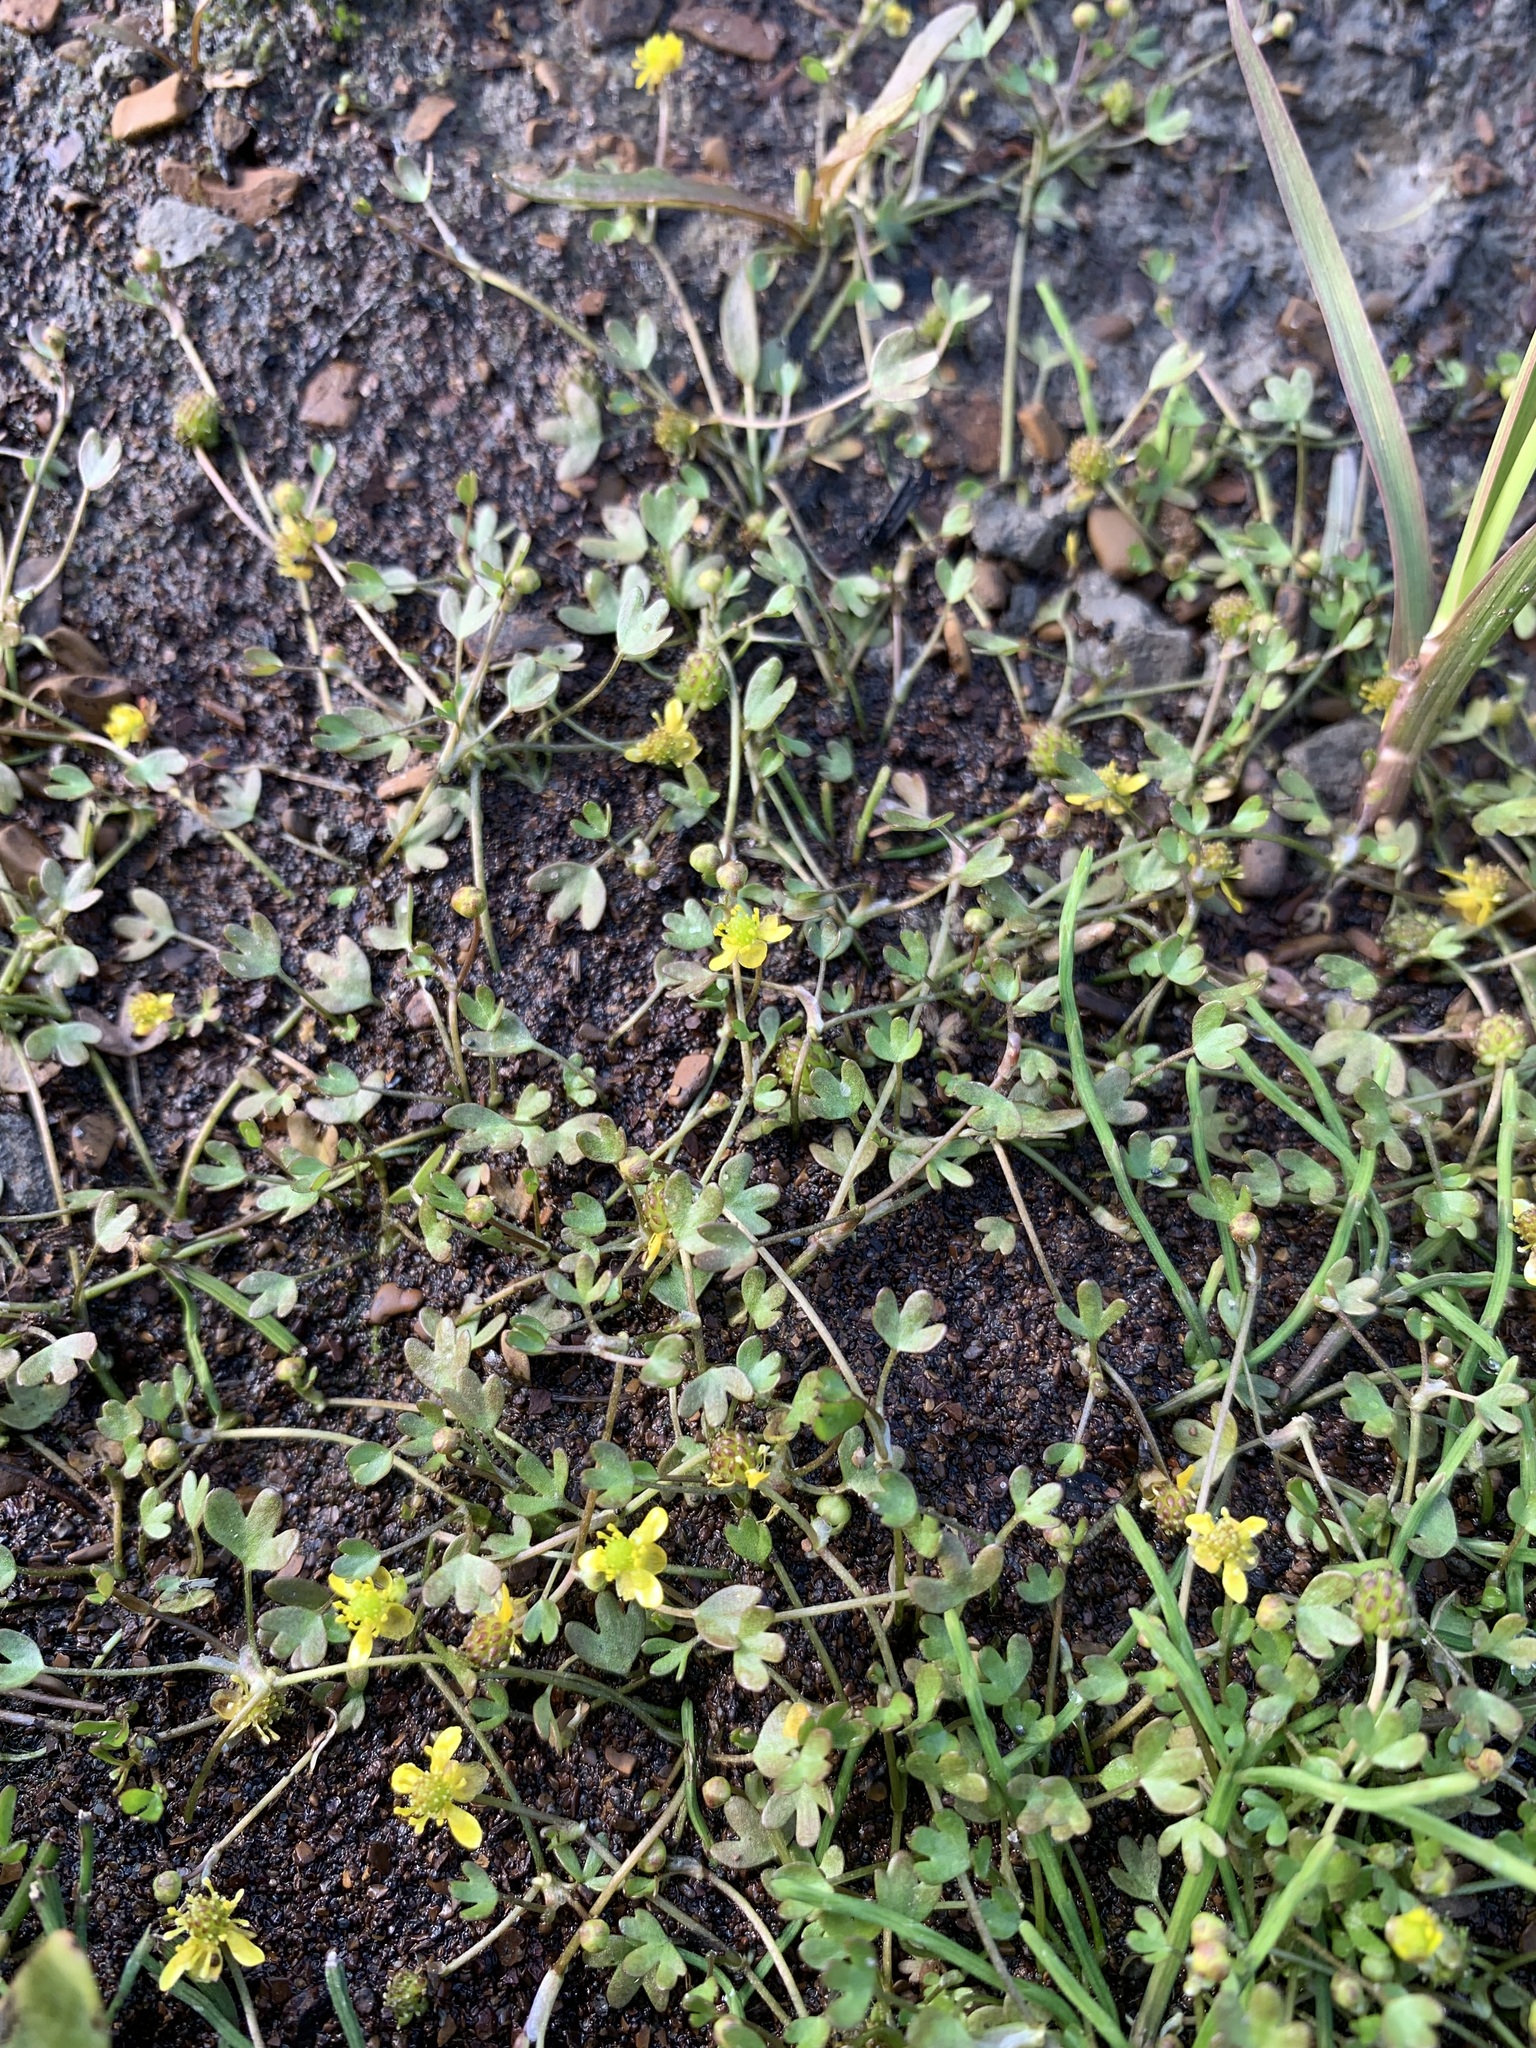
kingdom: Plantae
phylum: Tracheophyta
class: Magnoliopsida
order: Ranunculales
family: Ranunculaceae
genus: Ranunculus
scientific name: Ranunculus hyperboreus
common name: Arctic buttercup
